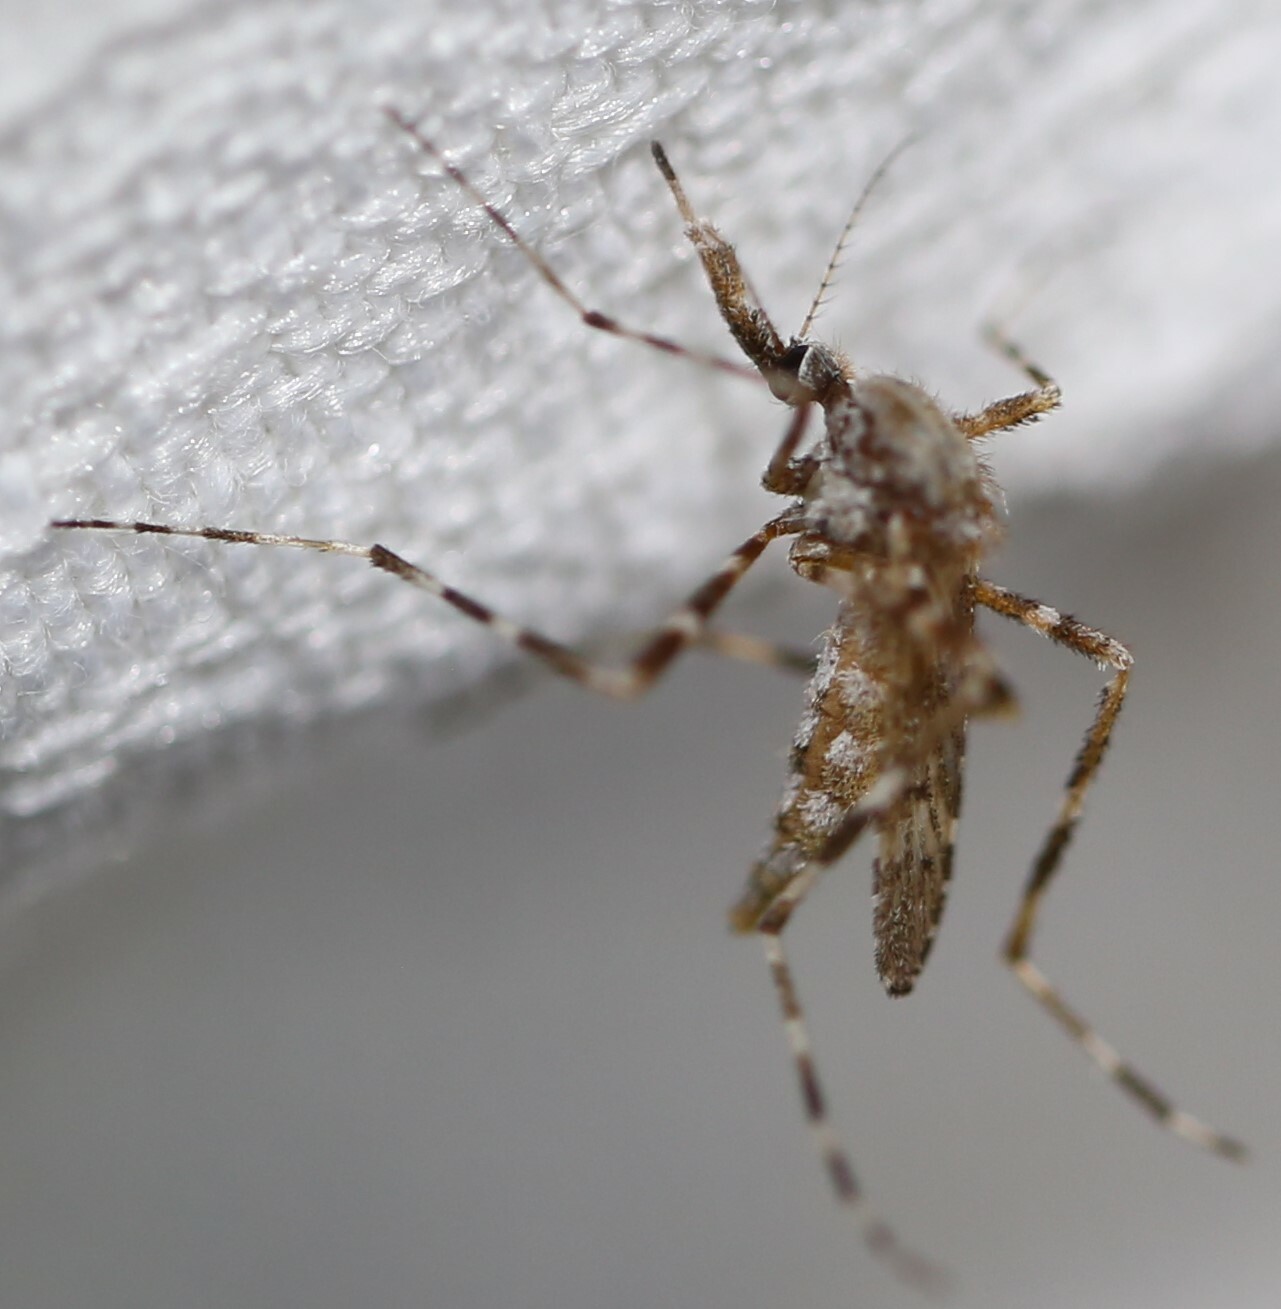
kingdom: Animalia
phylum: Arthropoda
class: Insecta
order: Diptera
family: Culicidae
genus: Aedes
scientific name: Aedes alternans
